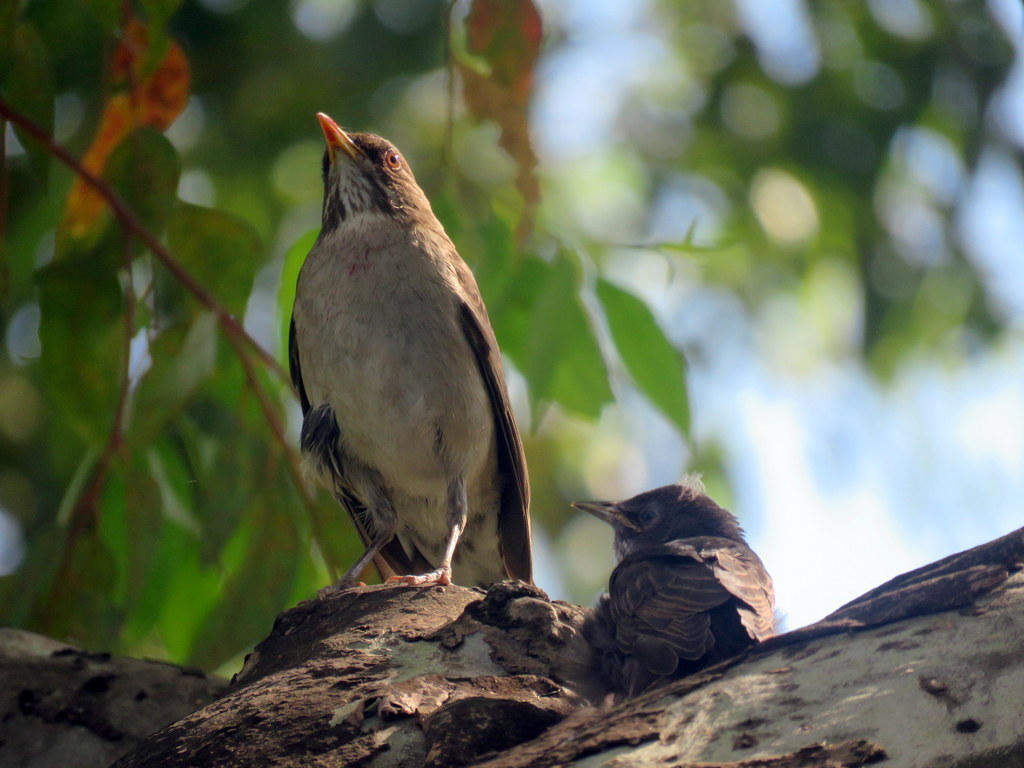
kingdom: Animalia
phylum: Chordata
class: Aves
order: Passeriformes
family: Turdidae
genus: Turdus
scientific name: Turdus amaurochalinus
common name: Creamy-bellied thrush
